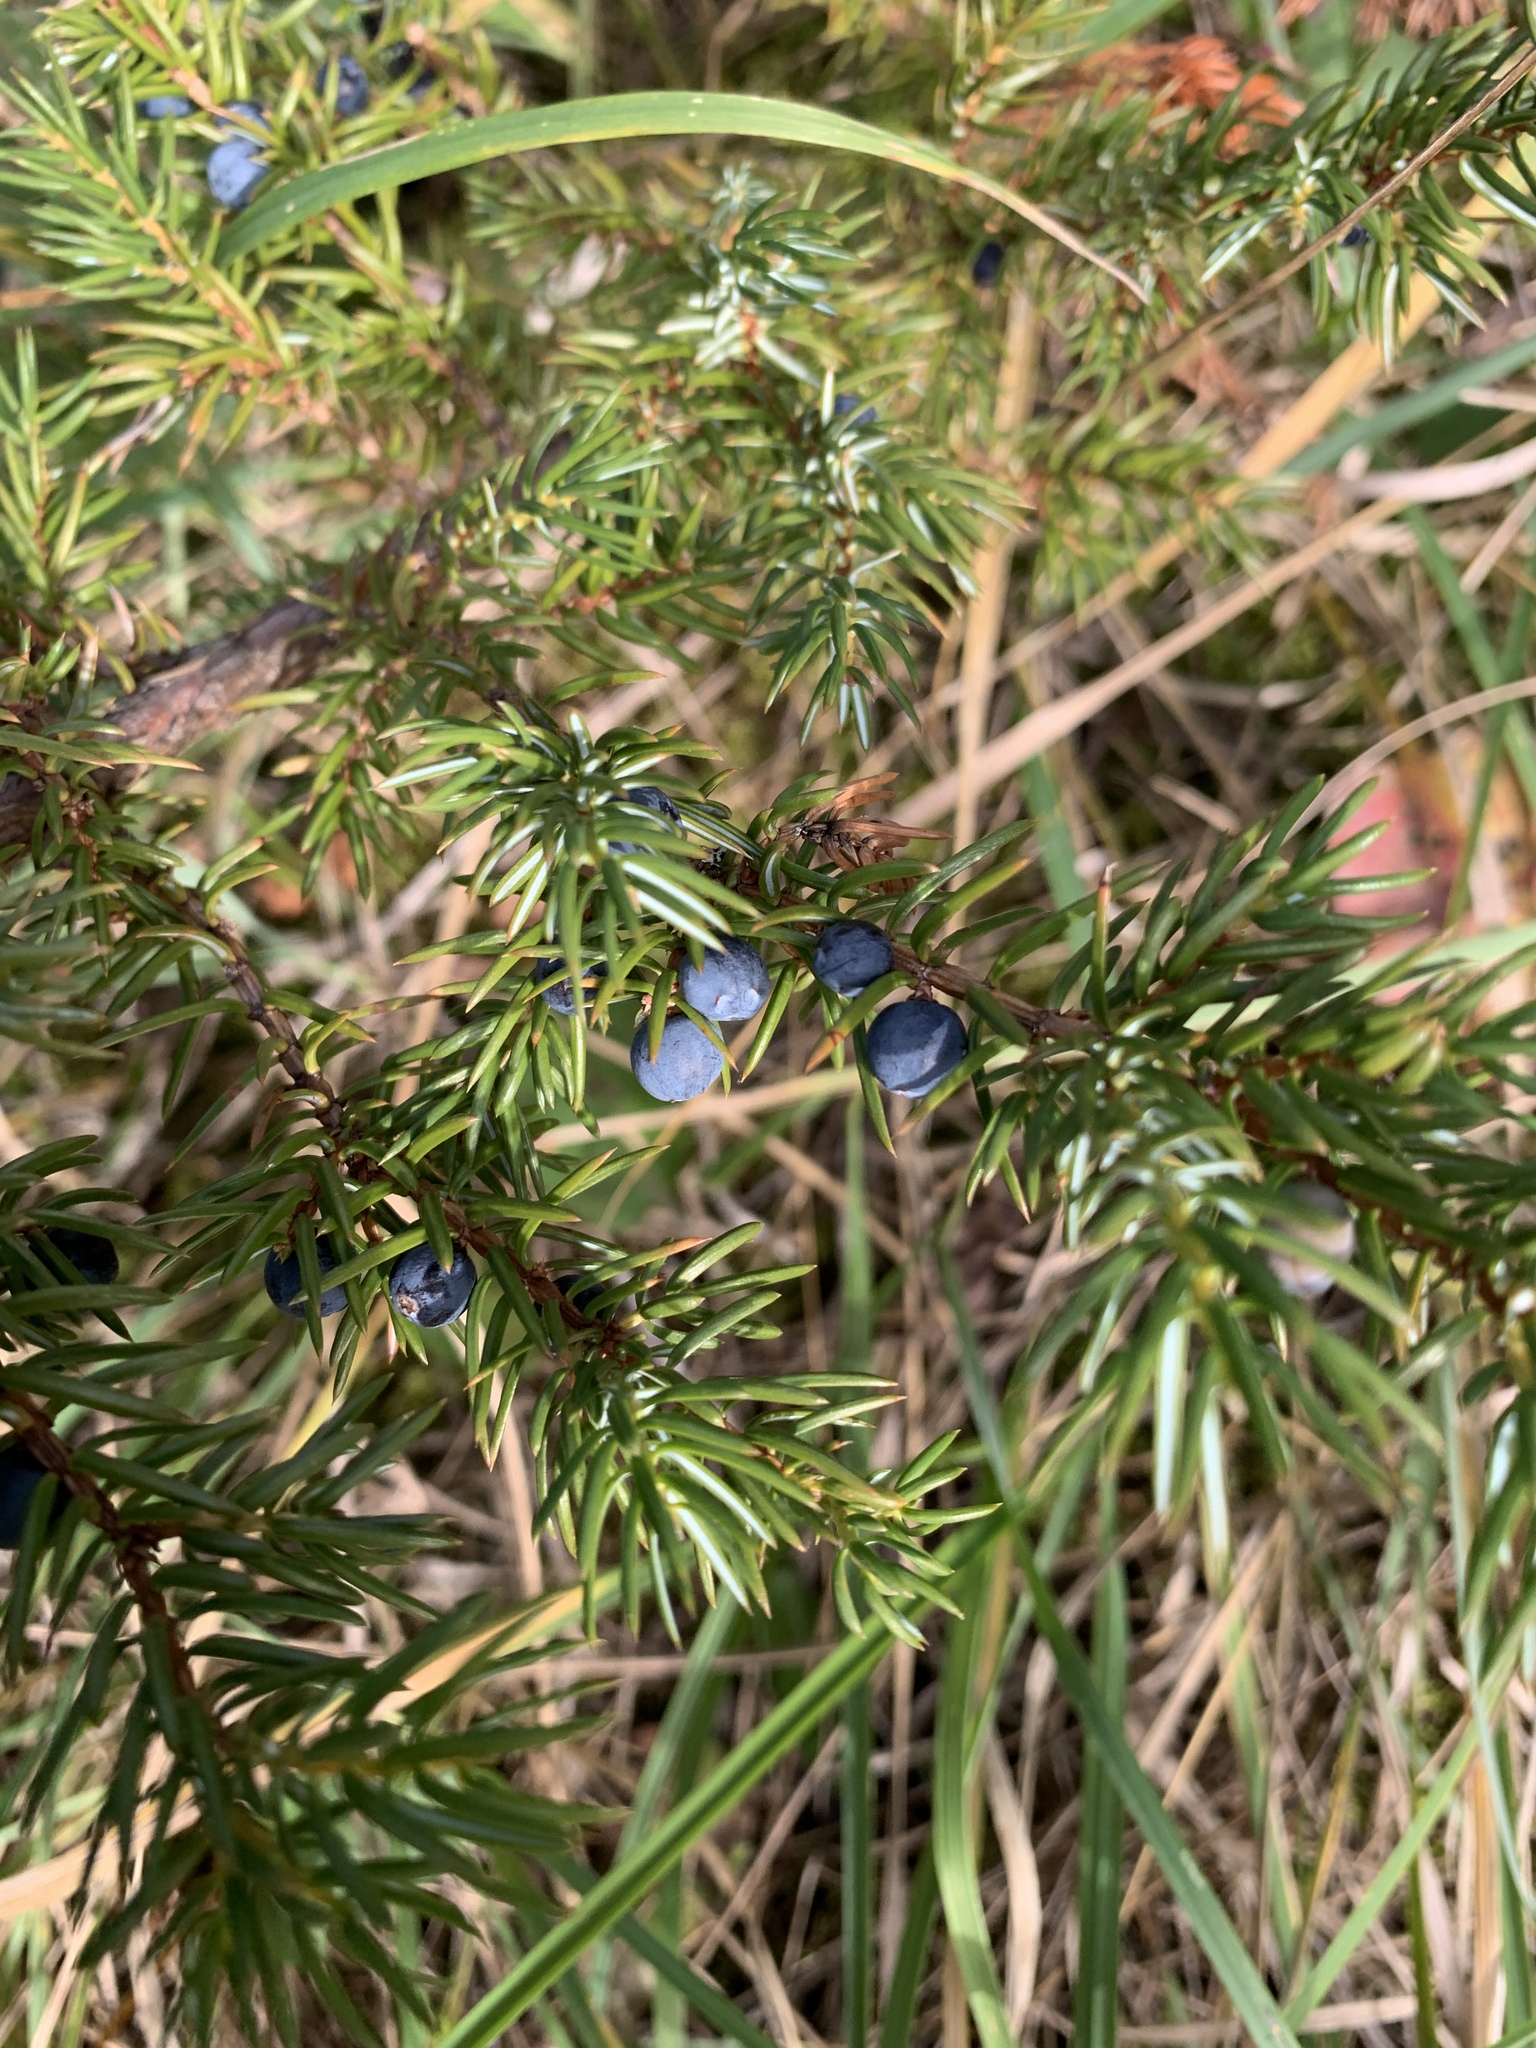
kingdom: Plantae
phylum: Tracheophyta
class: Pinopsida
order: Pinales
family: Cupressaceae
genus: Juniperus
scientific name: Juniperus communis
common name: Common juniper
